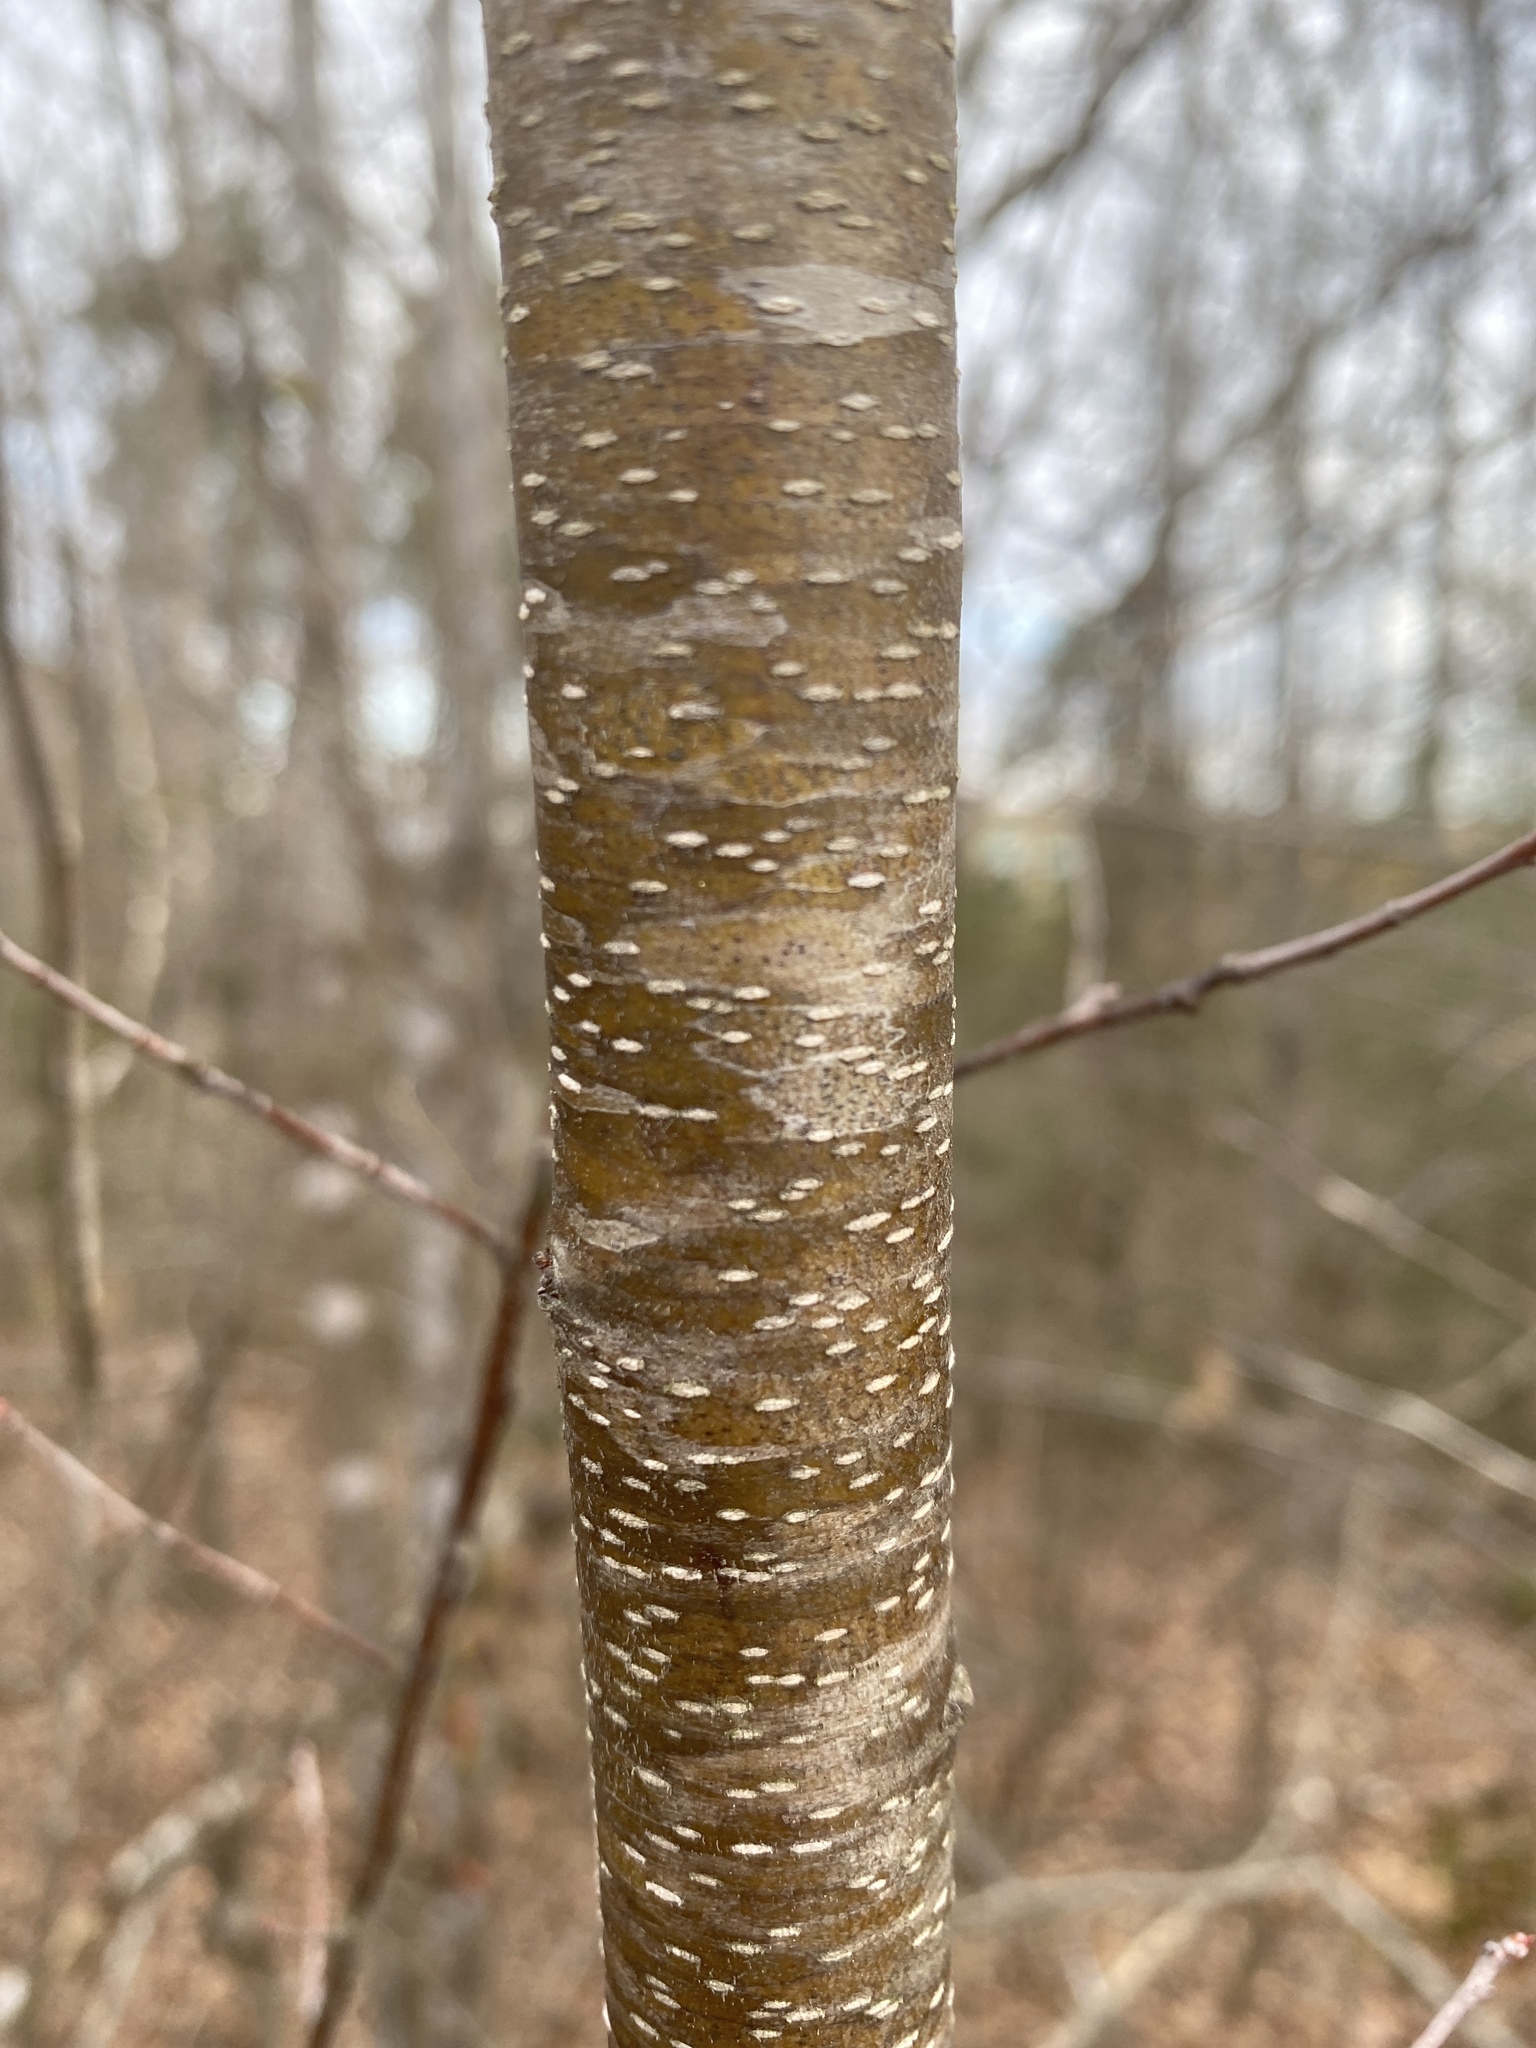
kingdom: Fungi
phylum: Ascomycota
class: Dothideomycetes
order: Venturiales
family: Venturiaceae
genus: Apiosporina
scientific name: Apiosporina morbosa
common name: Black knot
